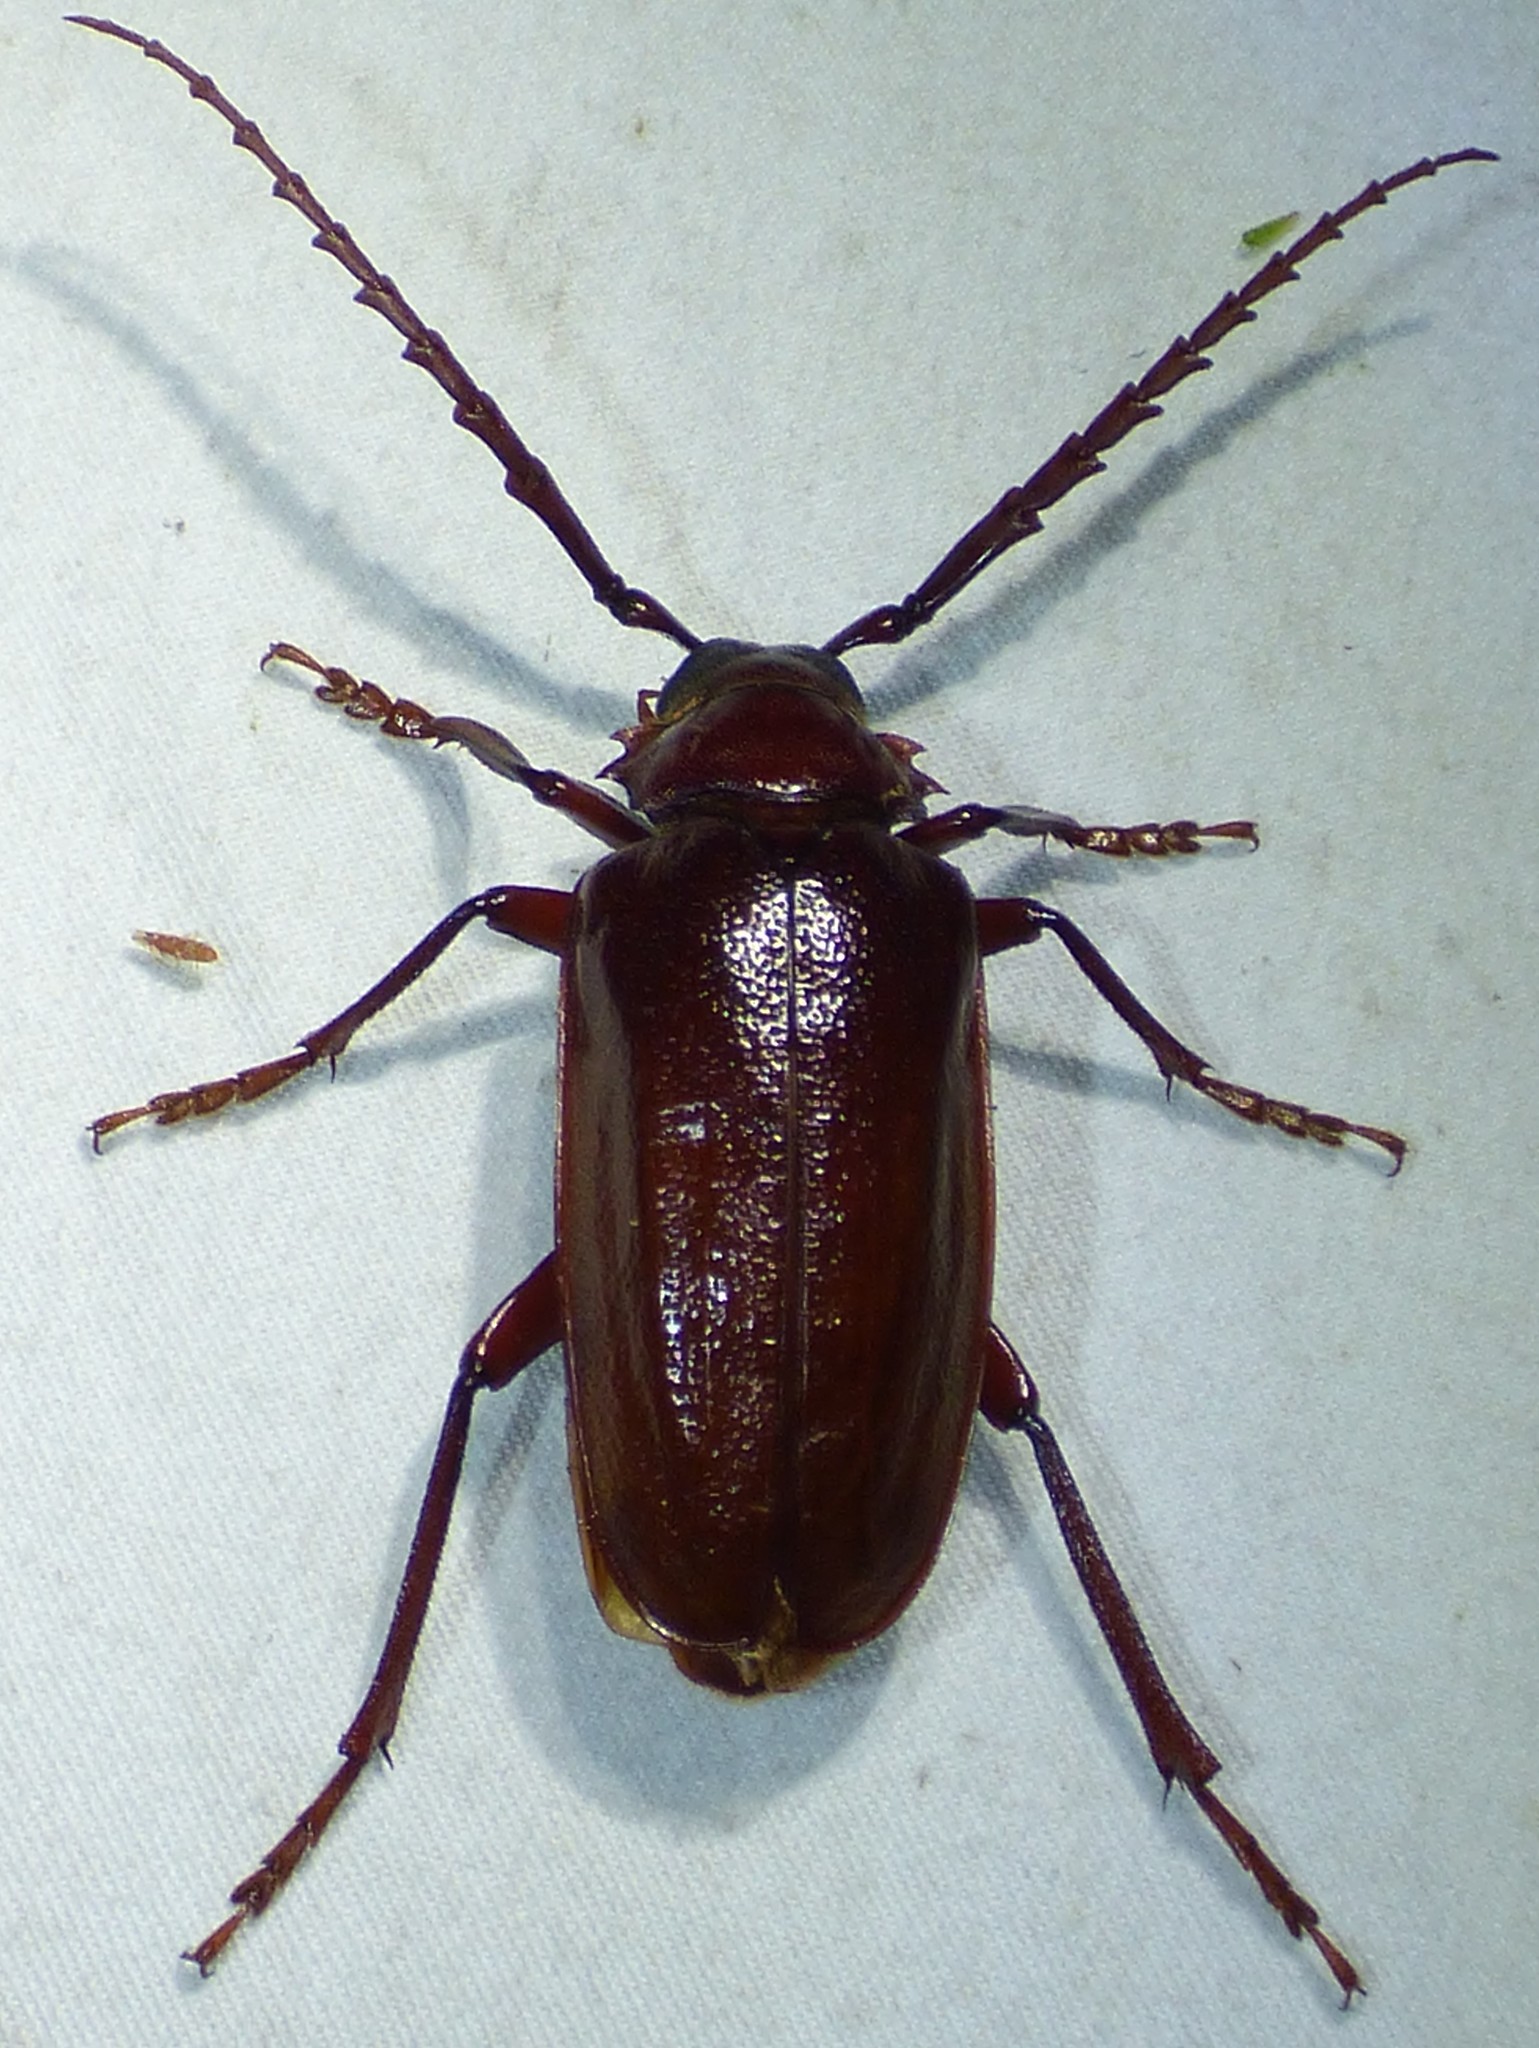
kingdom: Animalia
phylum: Arthropoda
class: Insecta
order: Coleoptera
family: Cerambycidae
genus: Prionus
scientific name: Prionus pocularis
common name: Tooth-necked longhorn beetle
